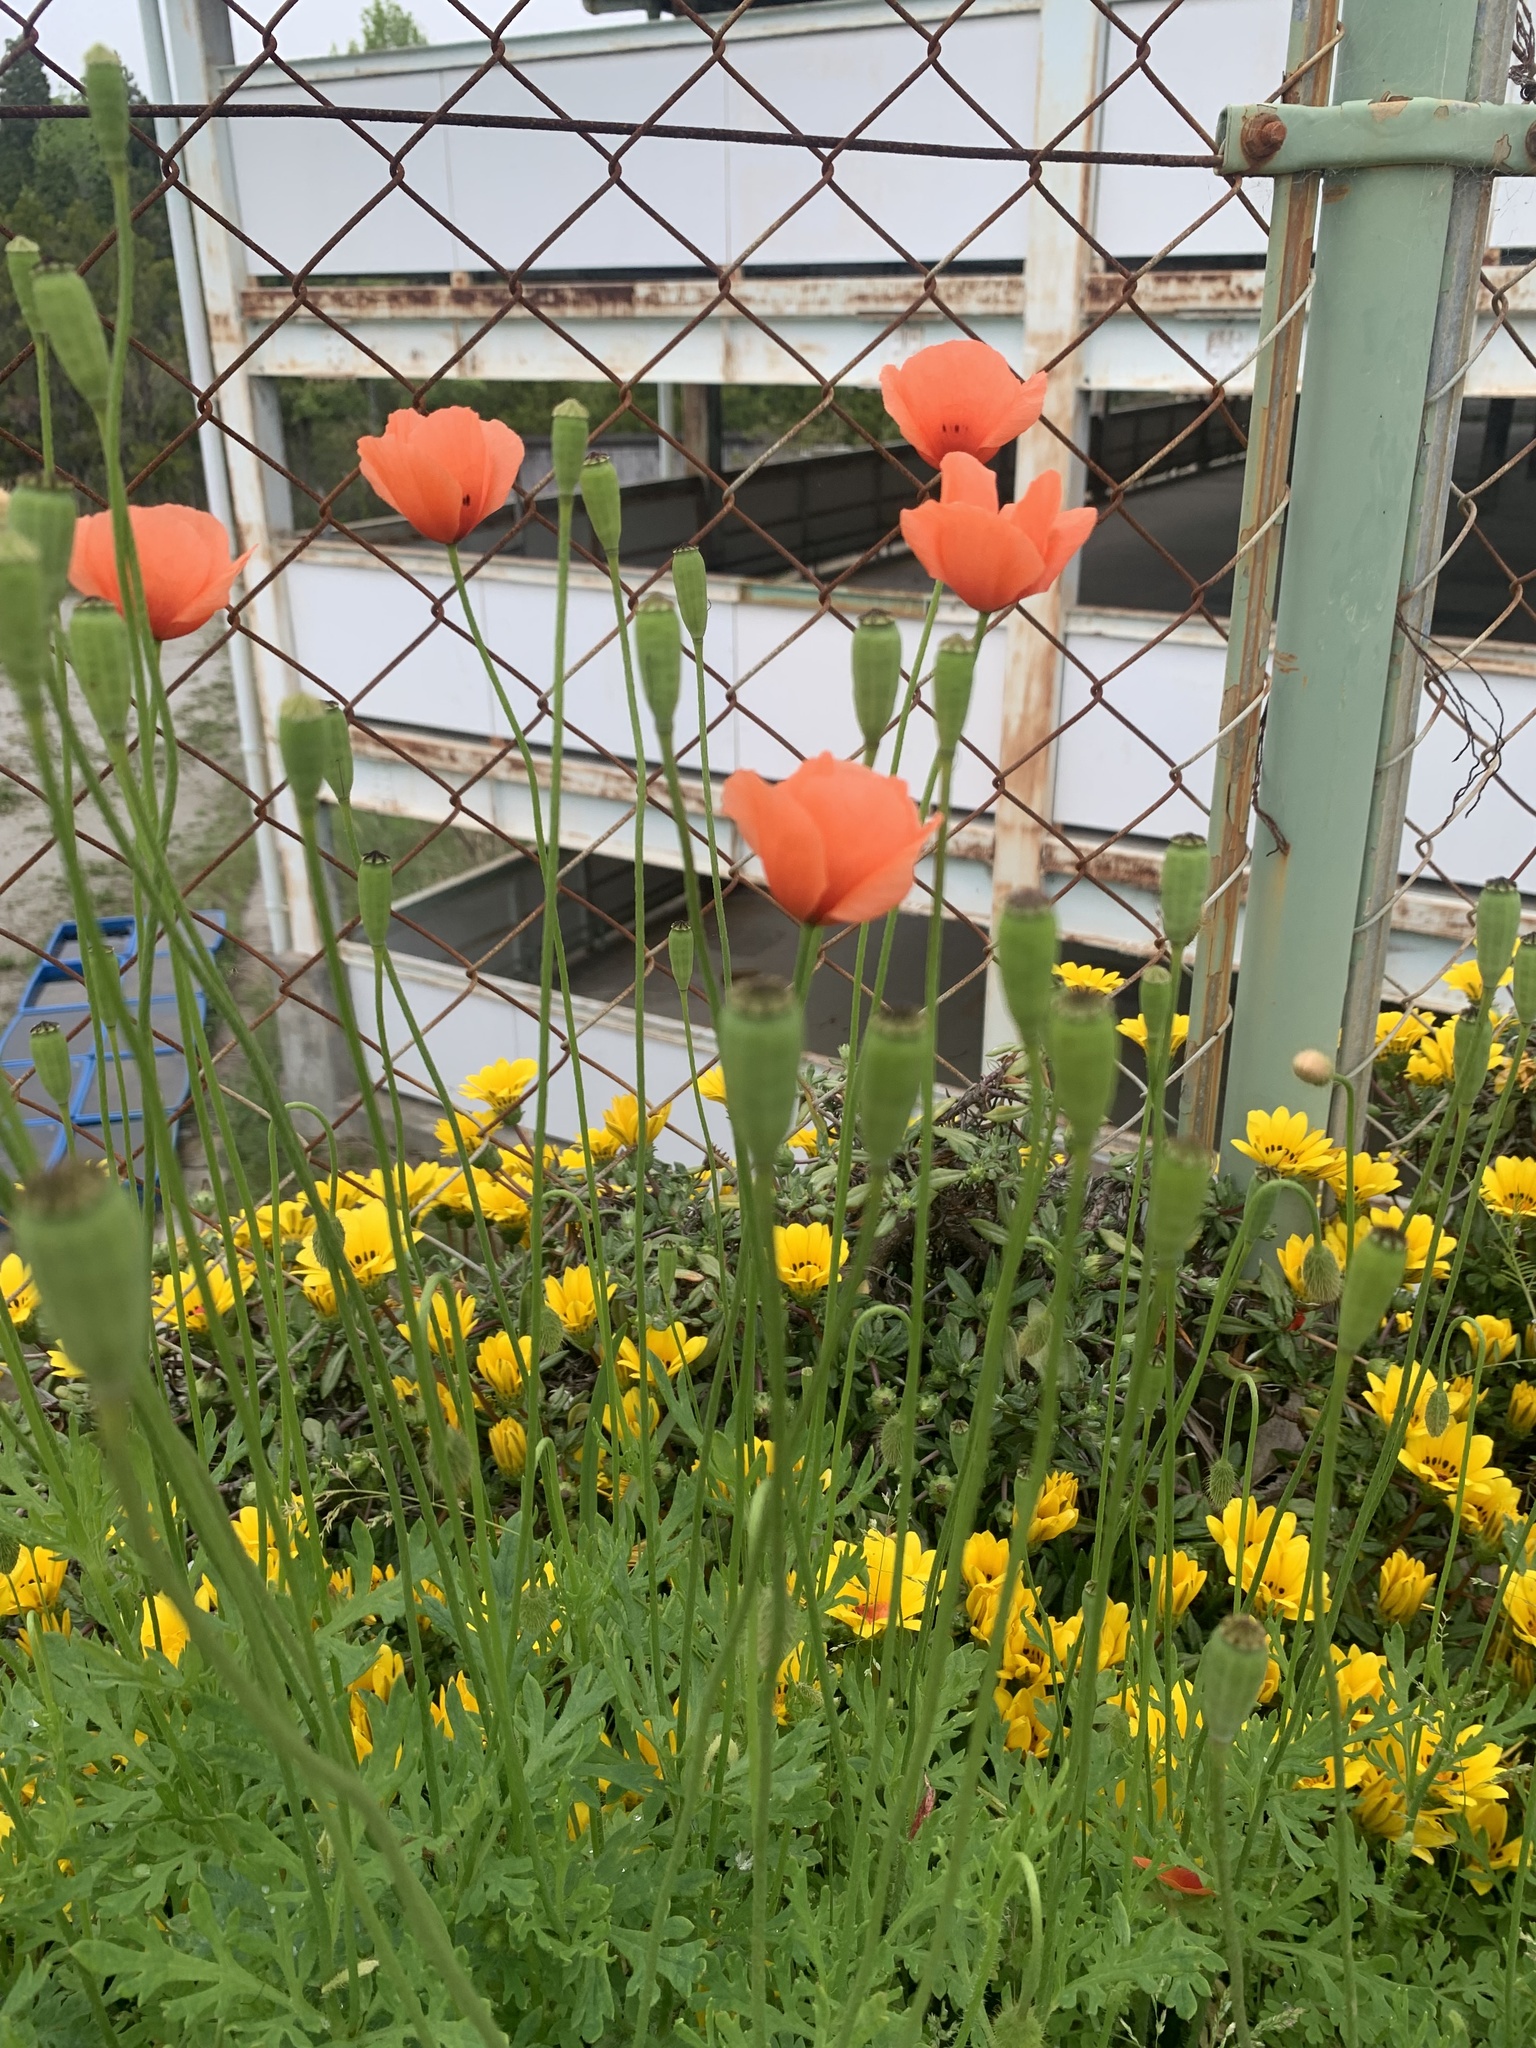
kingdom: Plantae
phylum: Tracheophyta
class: Magnoliopsida
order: Ranunculales
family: Papaveraceae
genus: Papaver
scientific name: Papaver dubium
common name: Long-headed poppy
